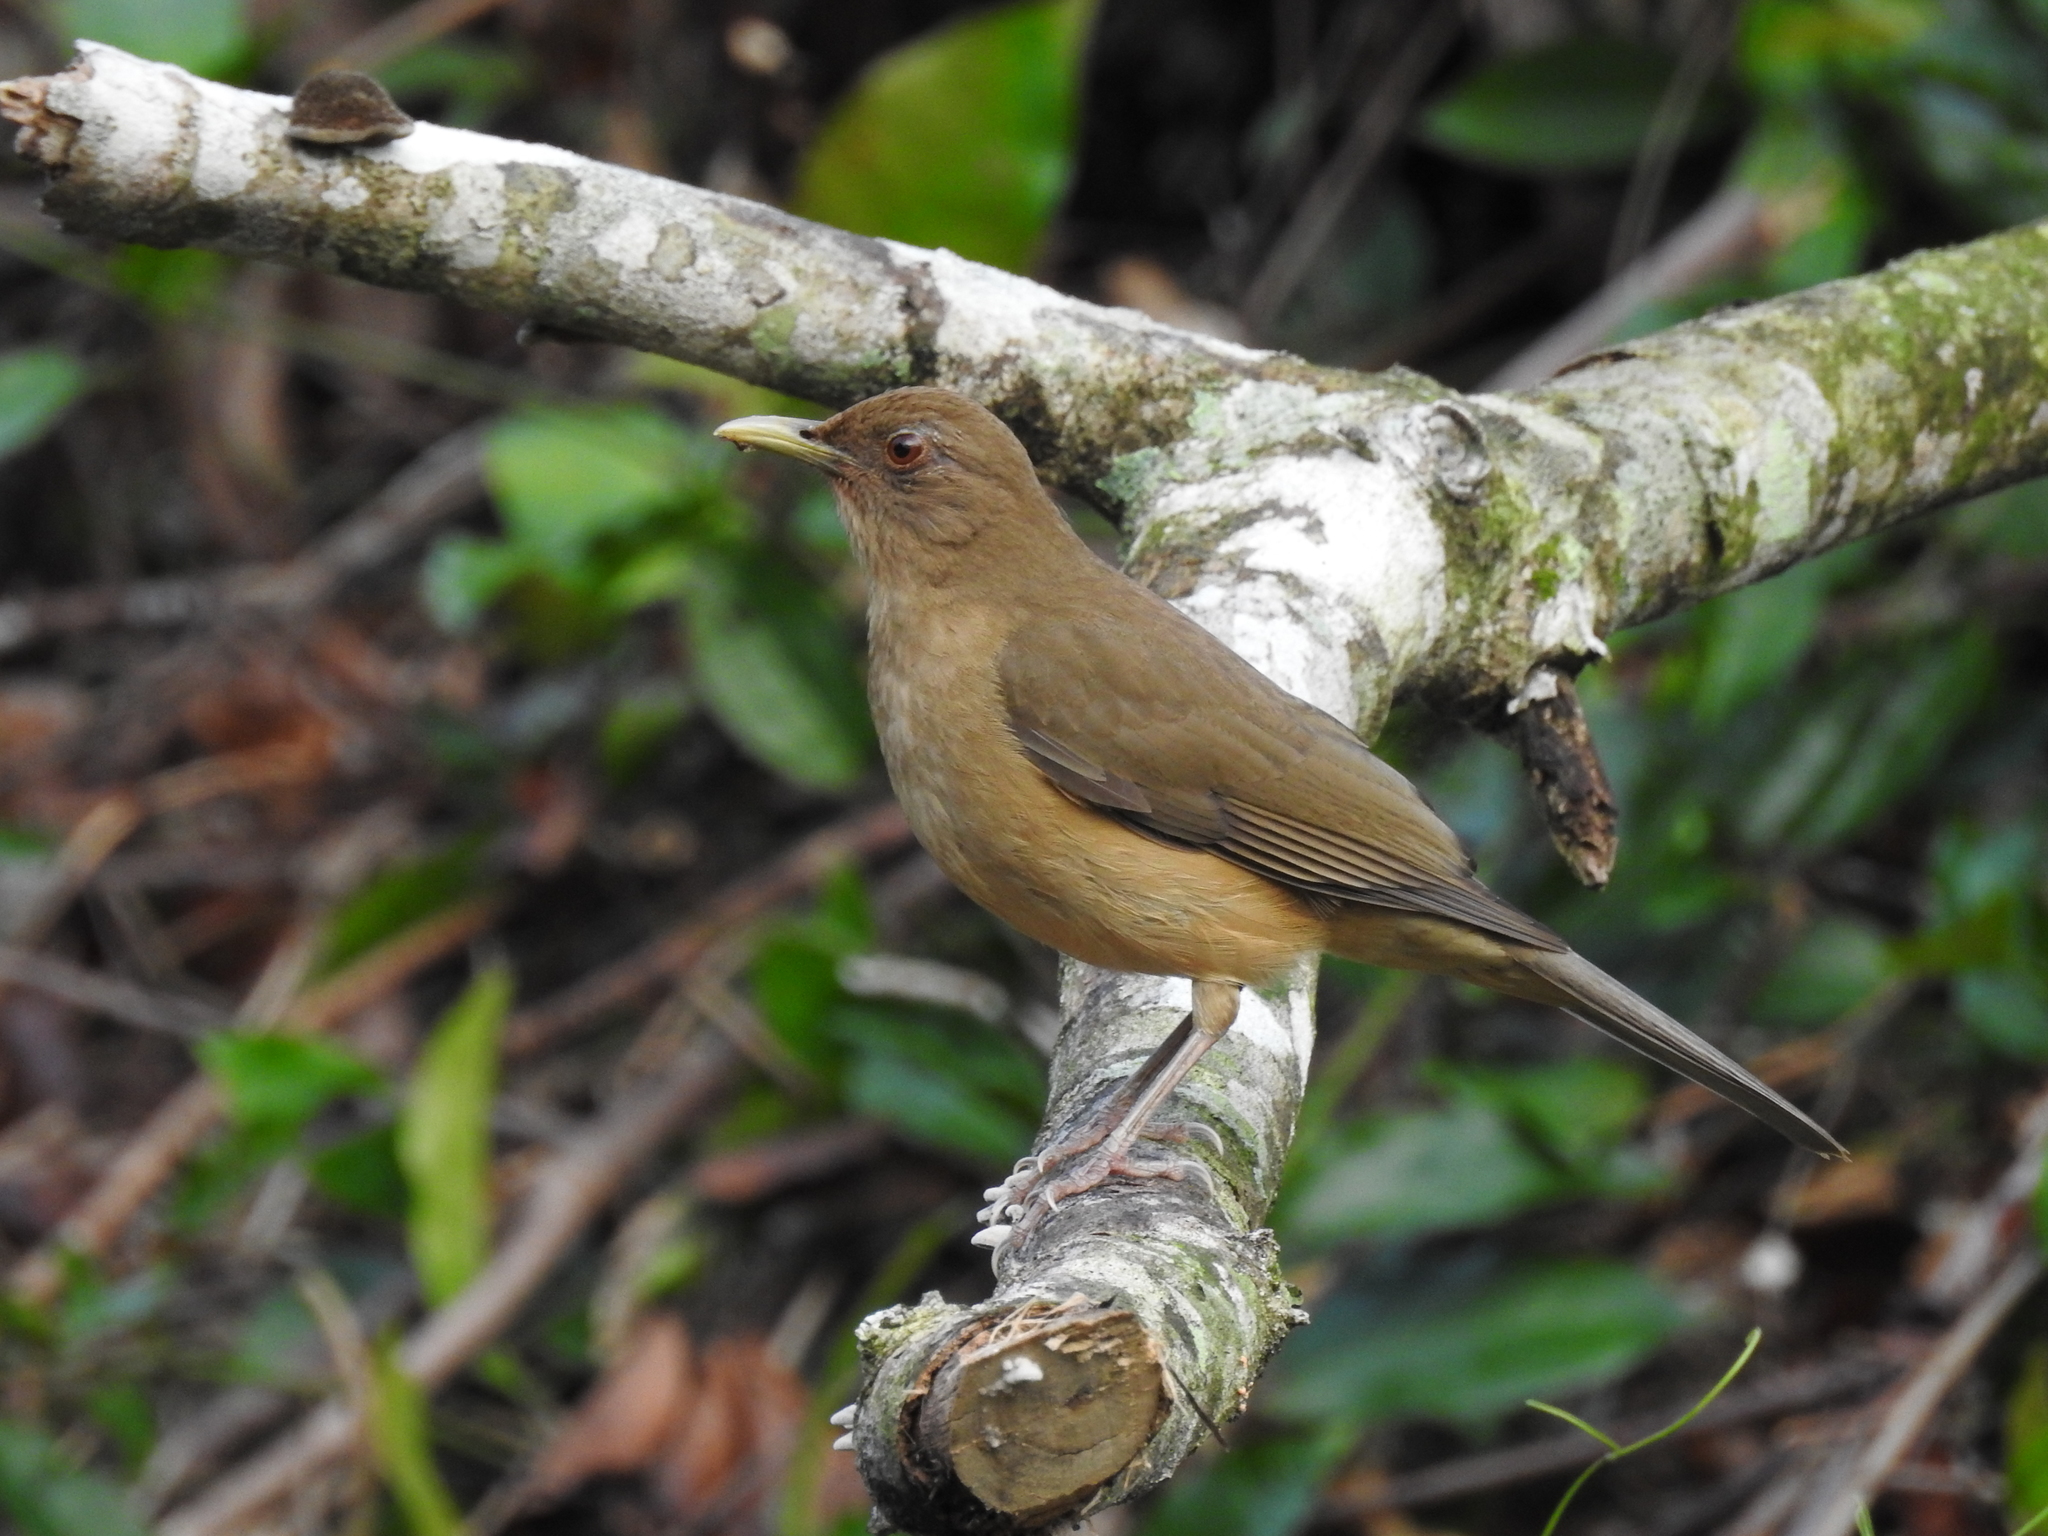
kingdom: Animalia
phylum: Chordata
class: Aves
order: Passeriformes
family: Turdidae
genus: Turdus
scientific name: Turdus grayi
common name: Clay-colored thrush
